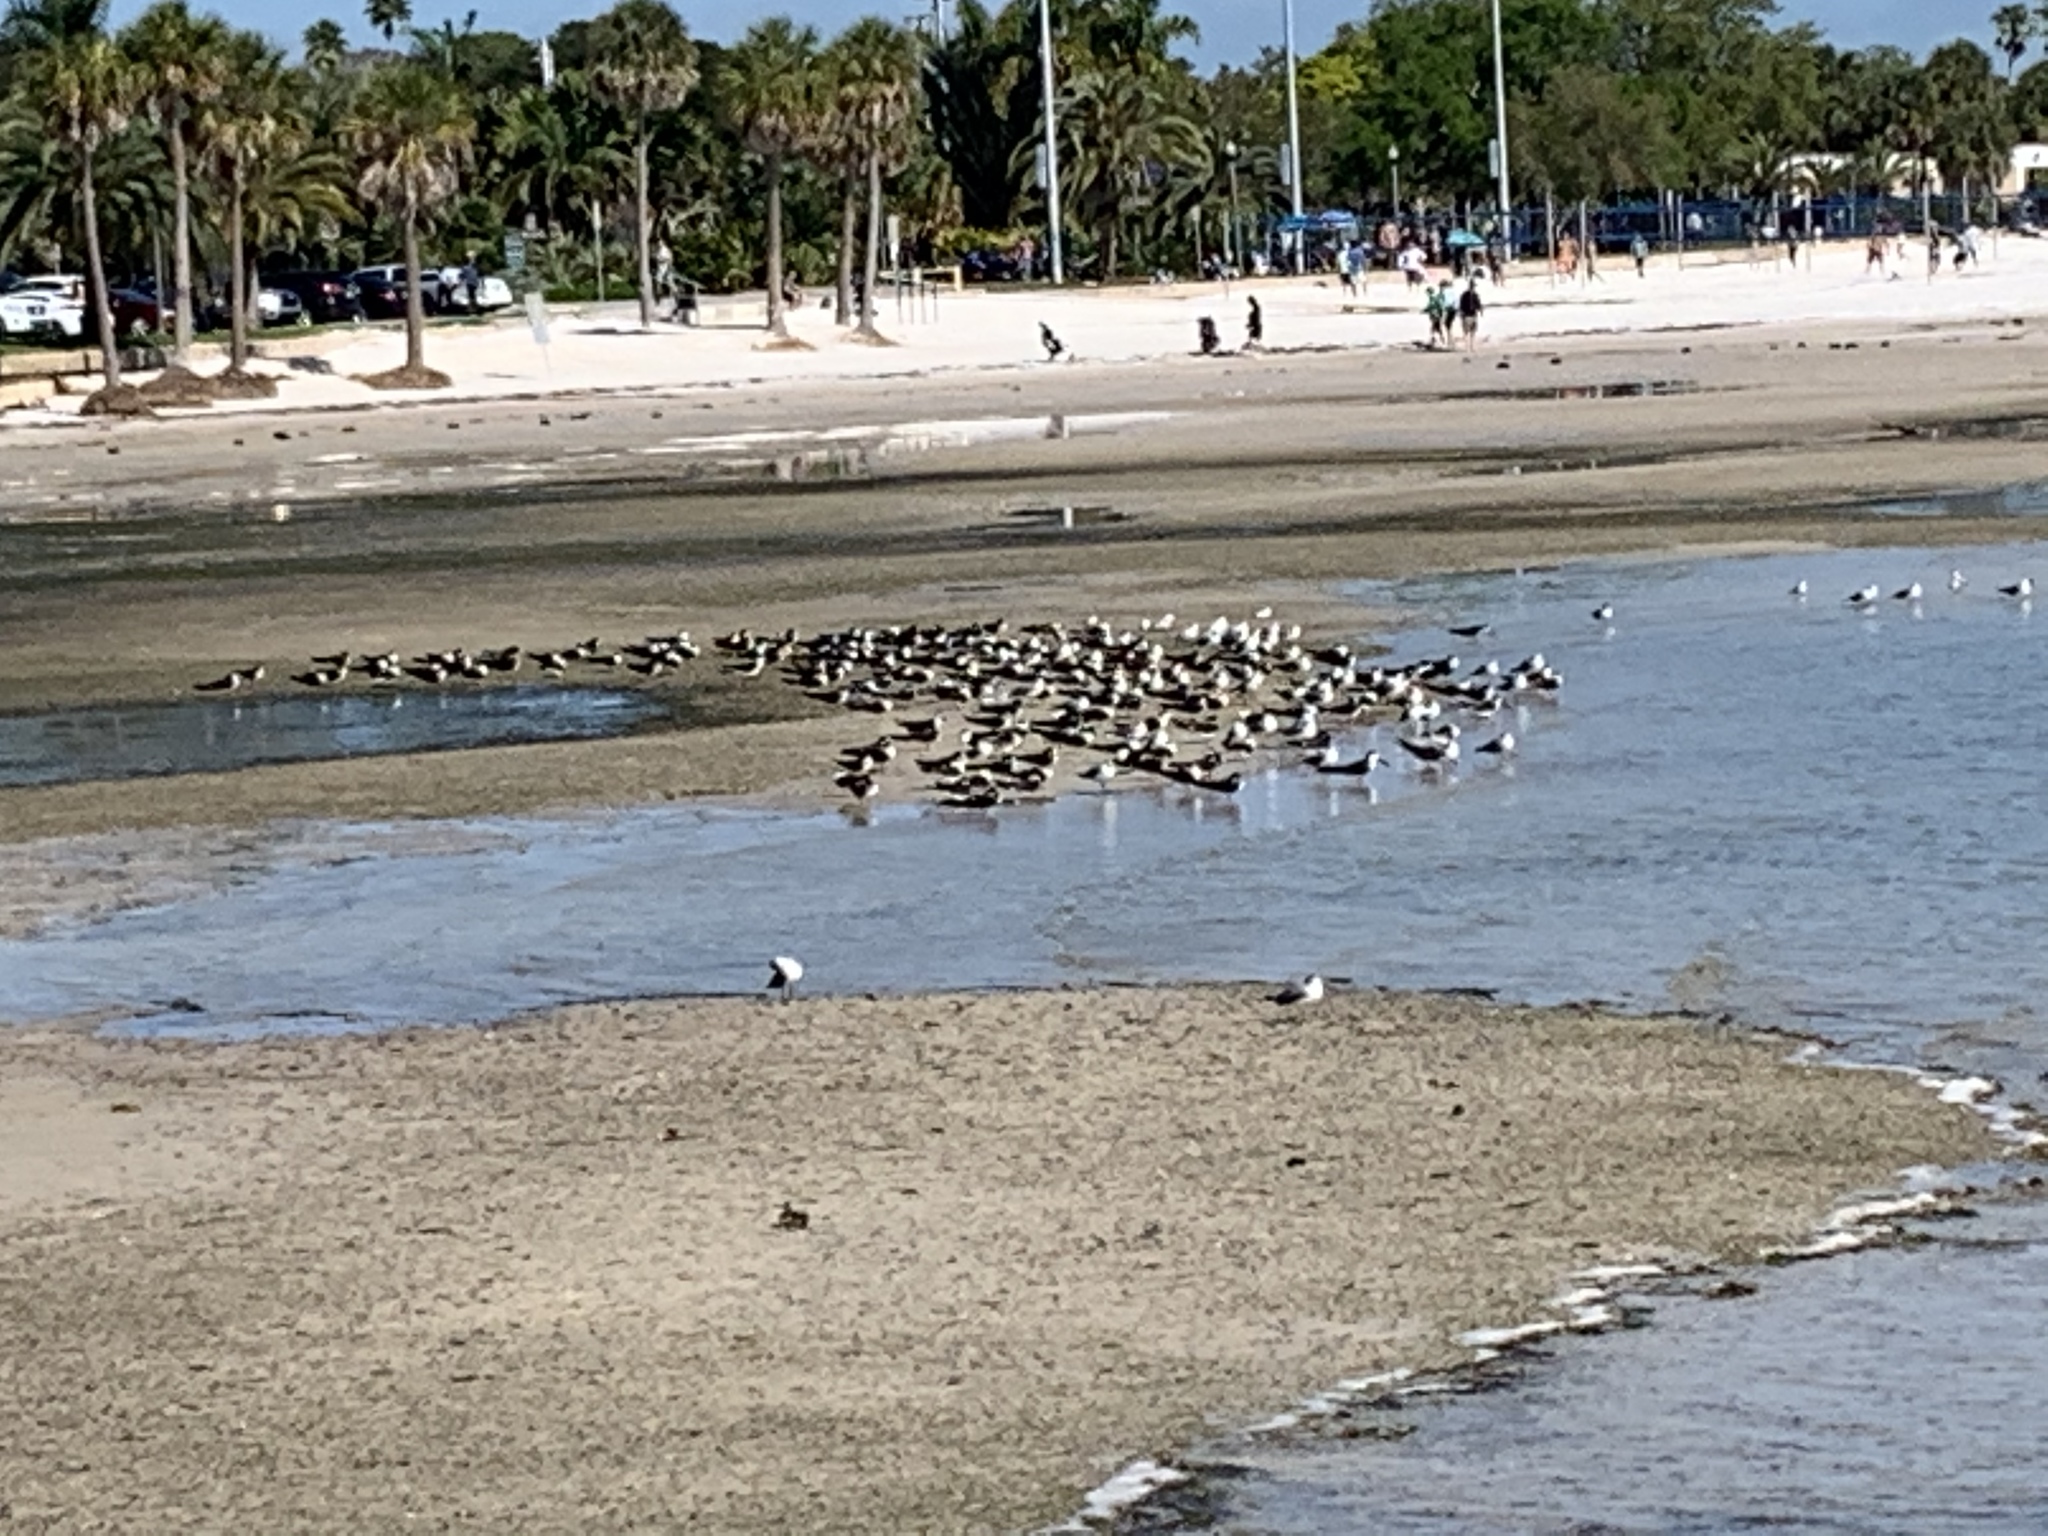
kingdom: Animalia
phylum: Chordata
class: Aves
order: Charadriiformes
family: Laridae
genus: Rynchops
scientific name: Rynchops niger
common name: Black skimmer
